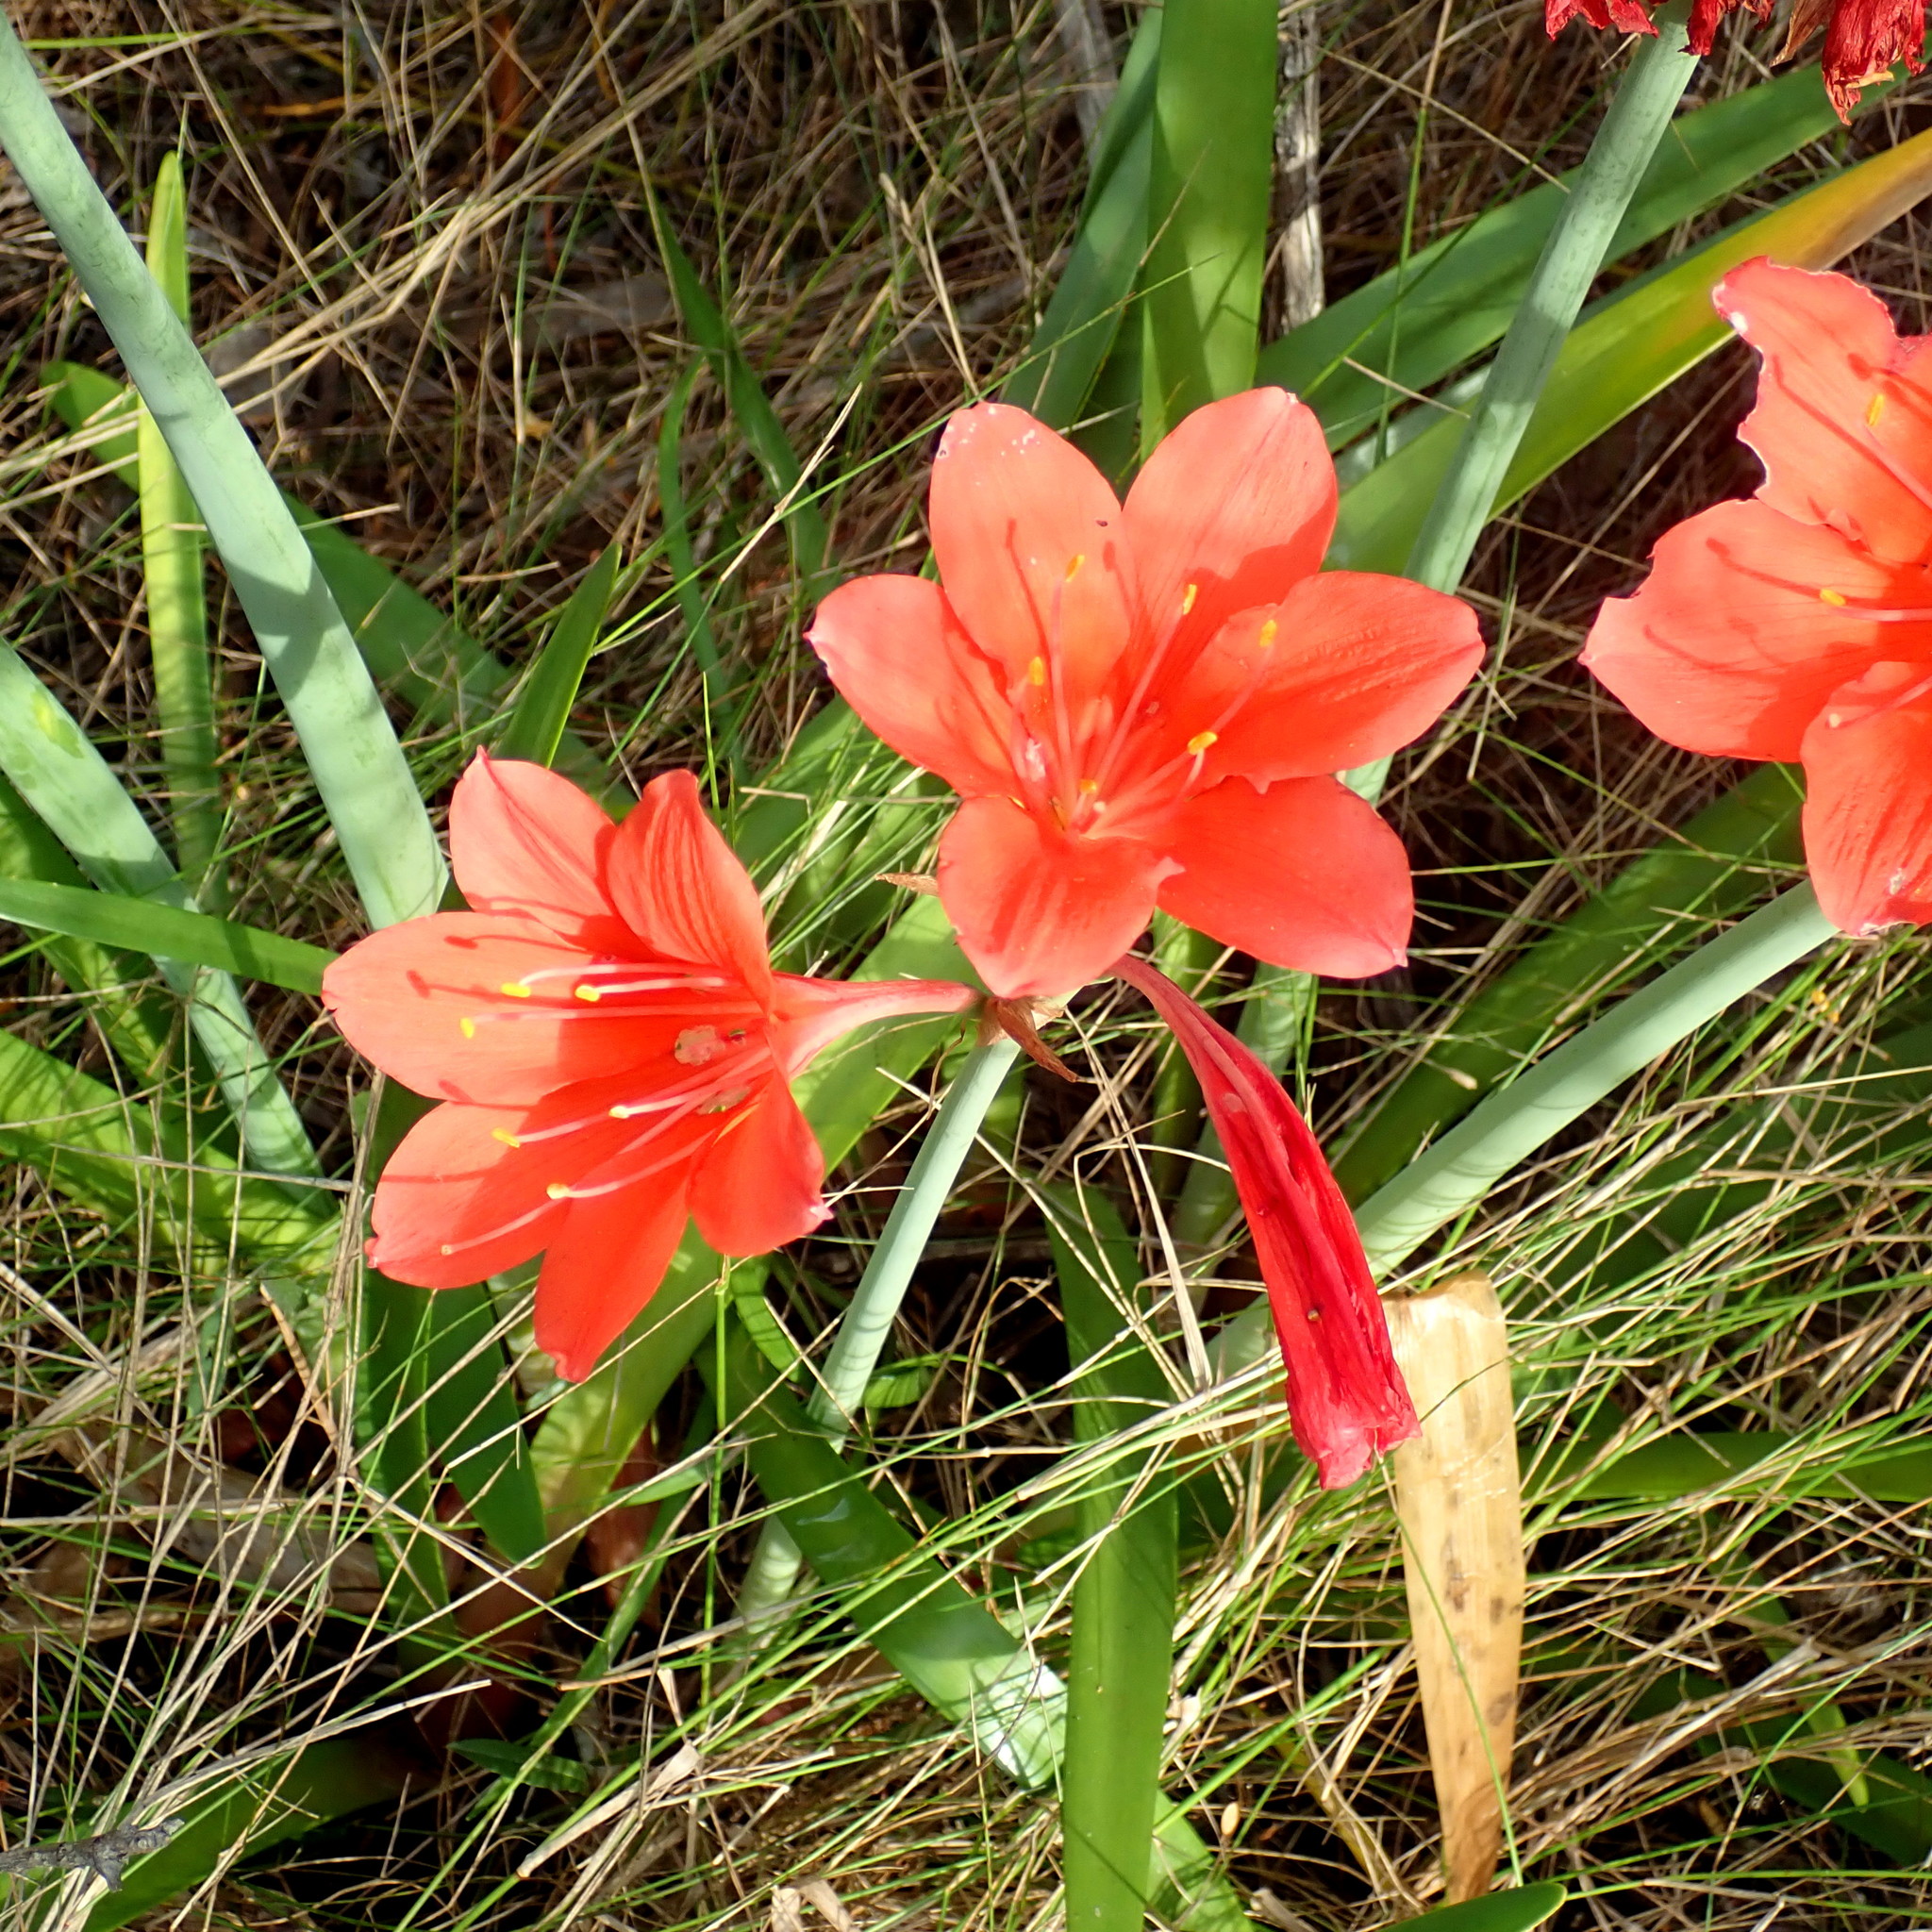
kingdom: Plantae
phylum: Tracheophyta
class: Liliopsida
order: Asparagales
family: Amaryllidaceae
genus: Cyrtanthus
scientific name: Cyrtanthus elatus
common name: Scarborough-lily
